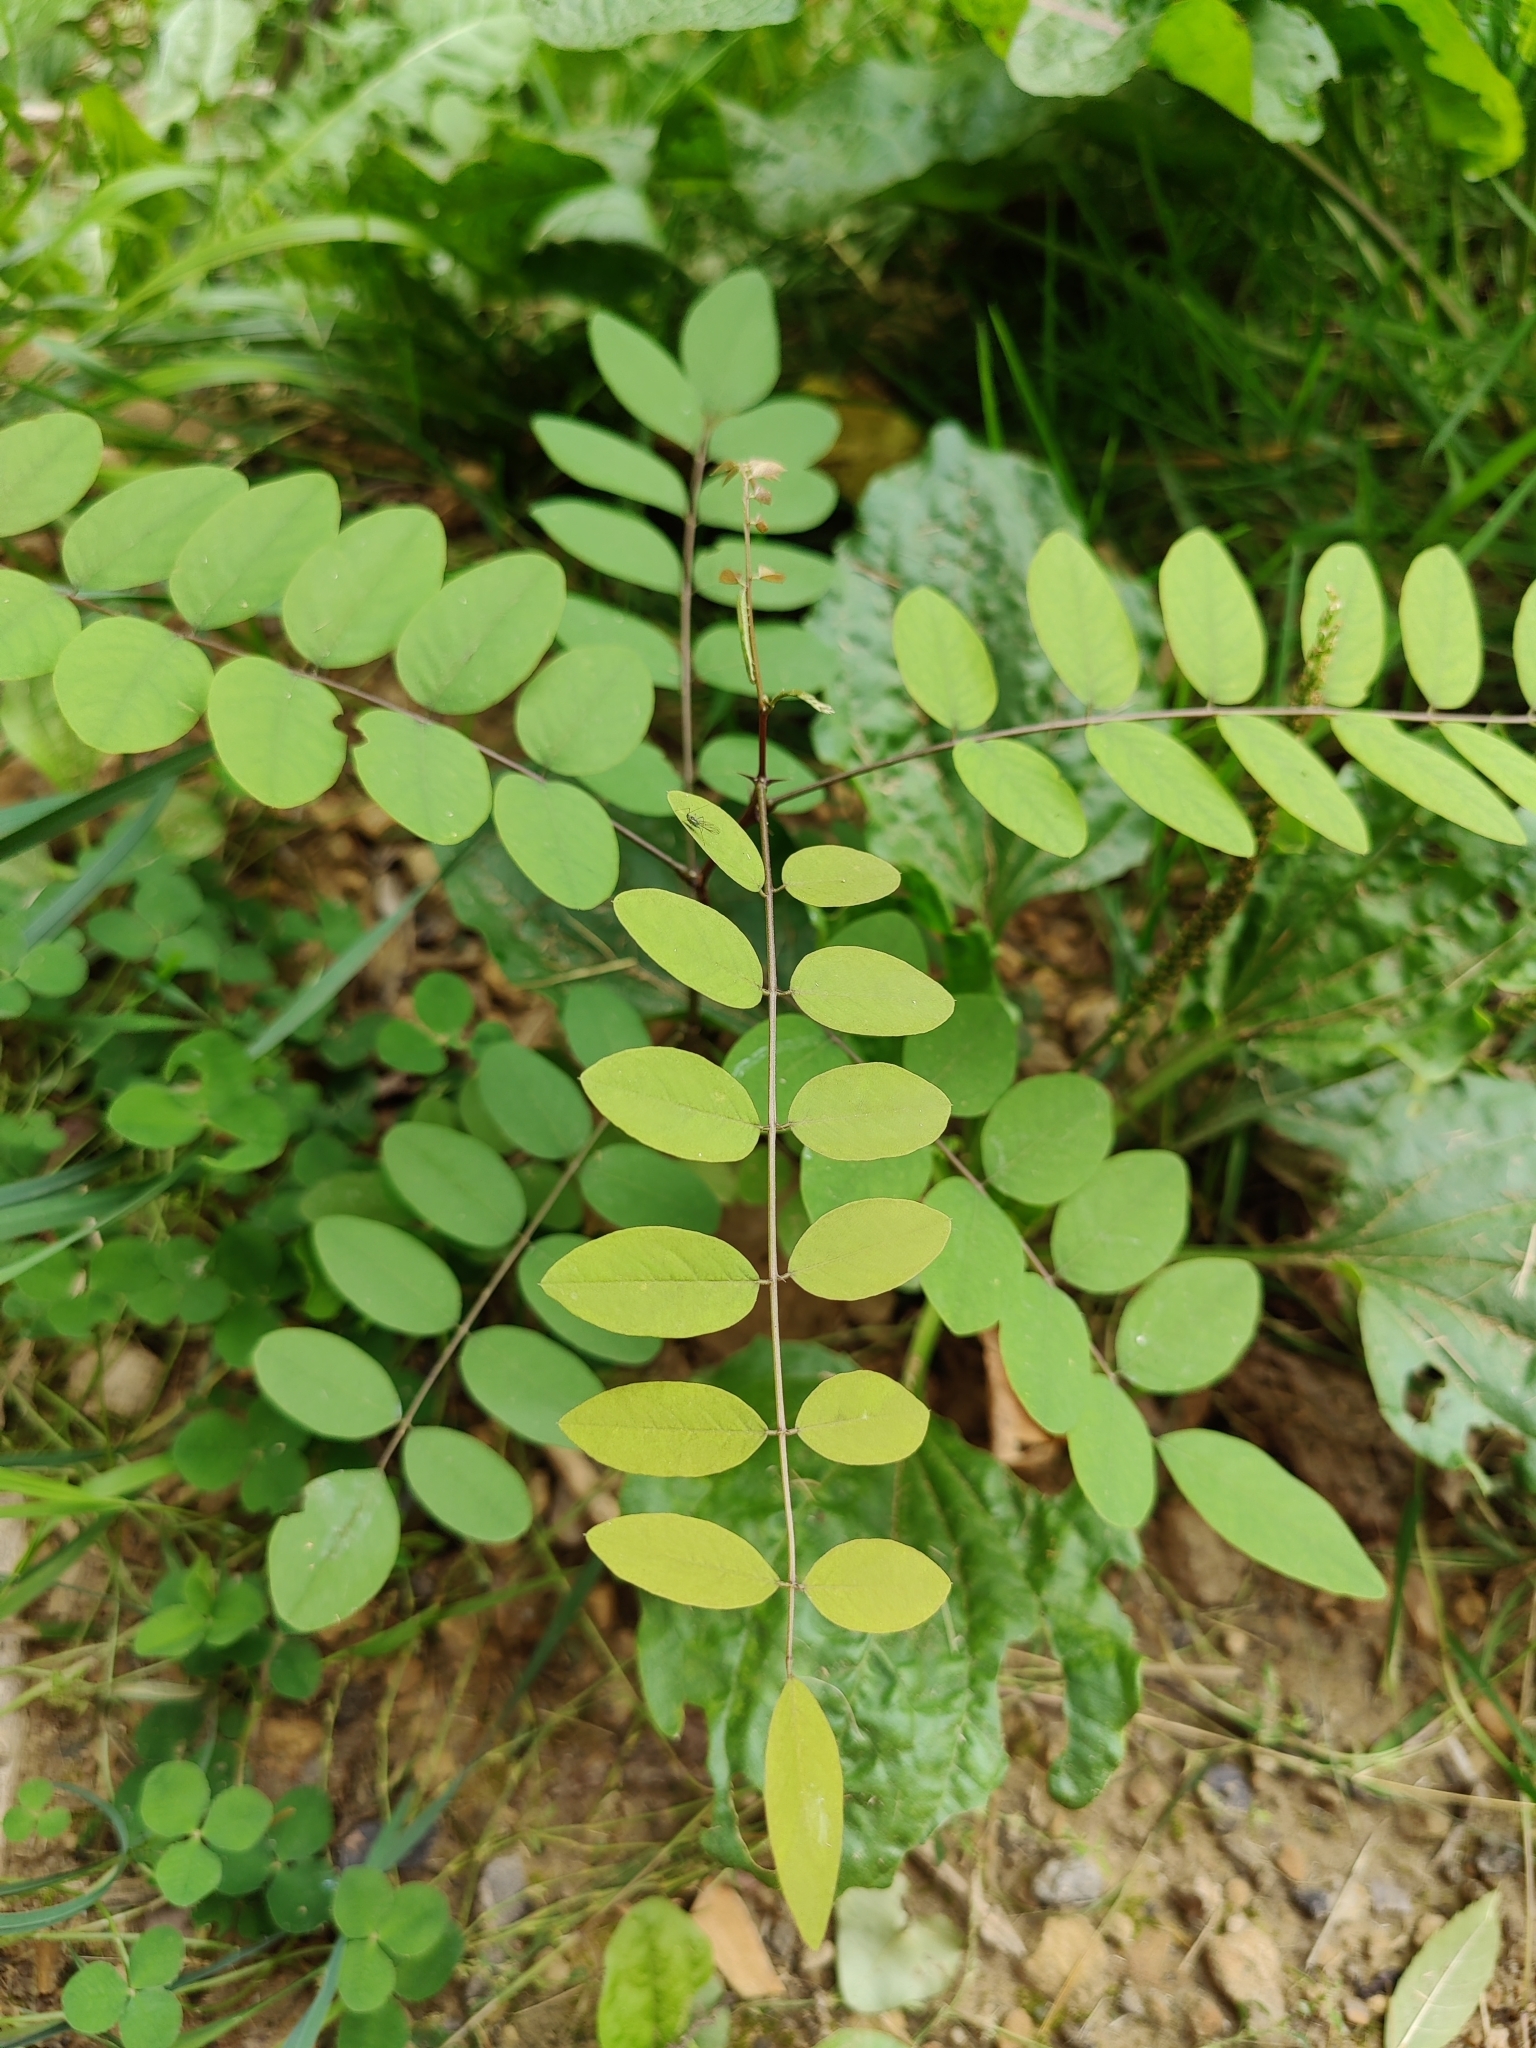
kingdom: Plantae
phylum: Tracheophyta
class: Magnoliopsida
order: Fabales
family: Fabaceae
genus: Robinia
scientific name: Robinia pseudoacacia
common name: Black locust
